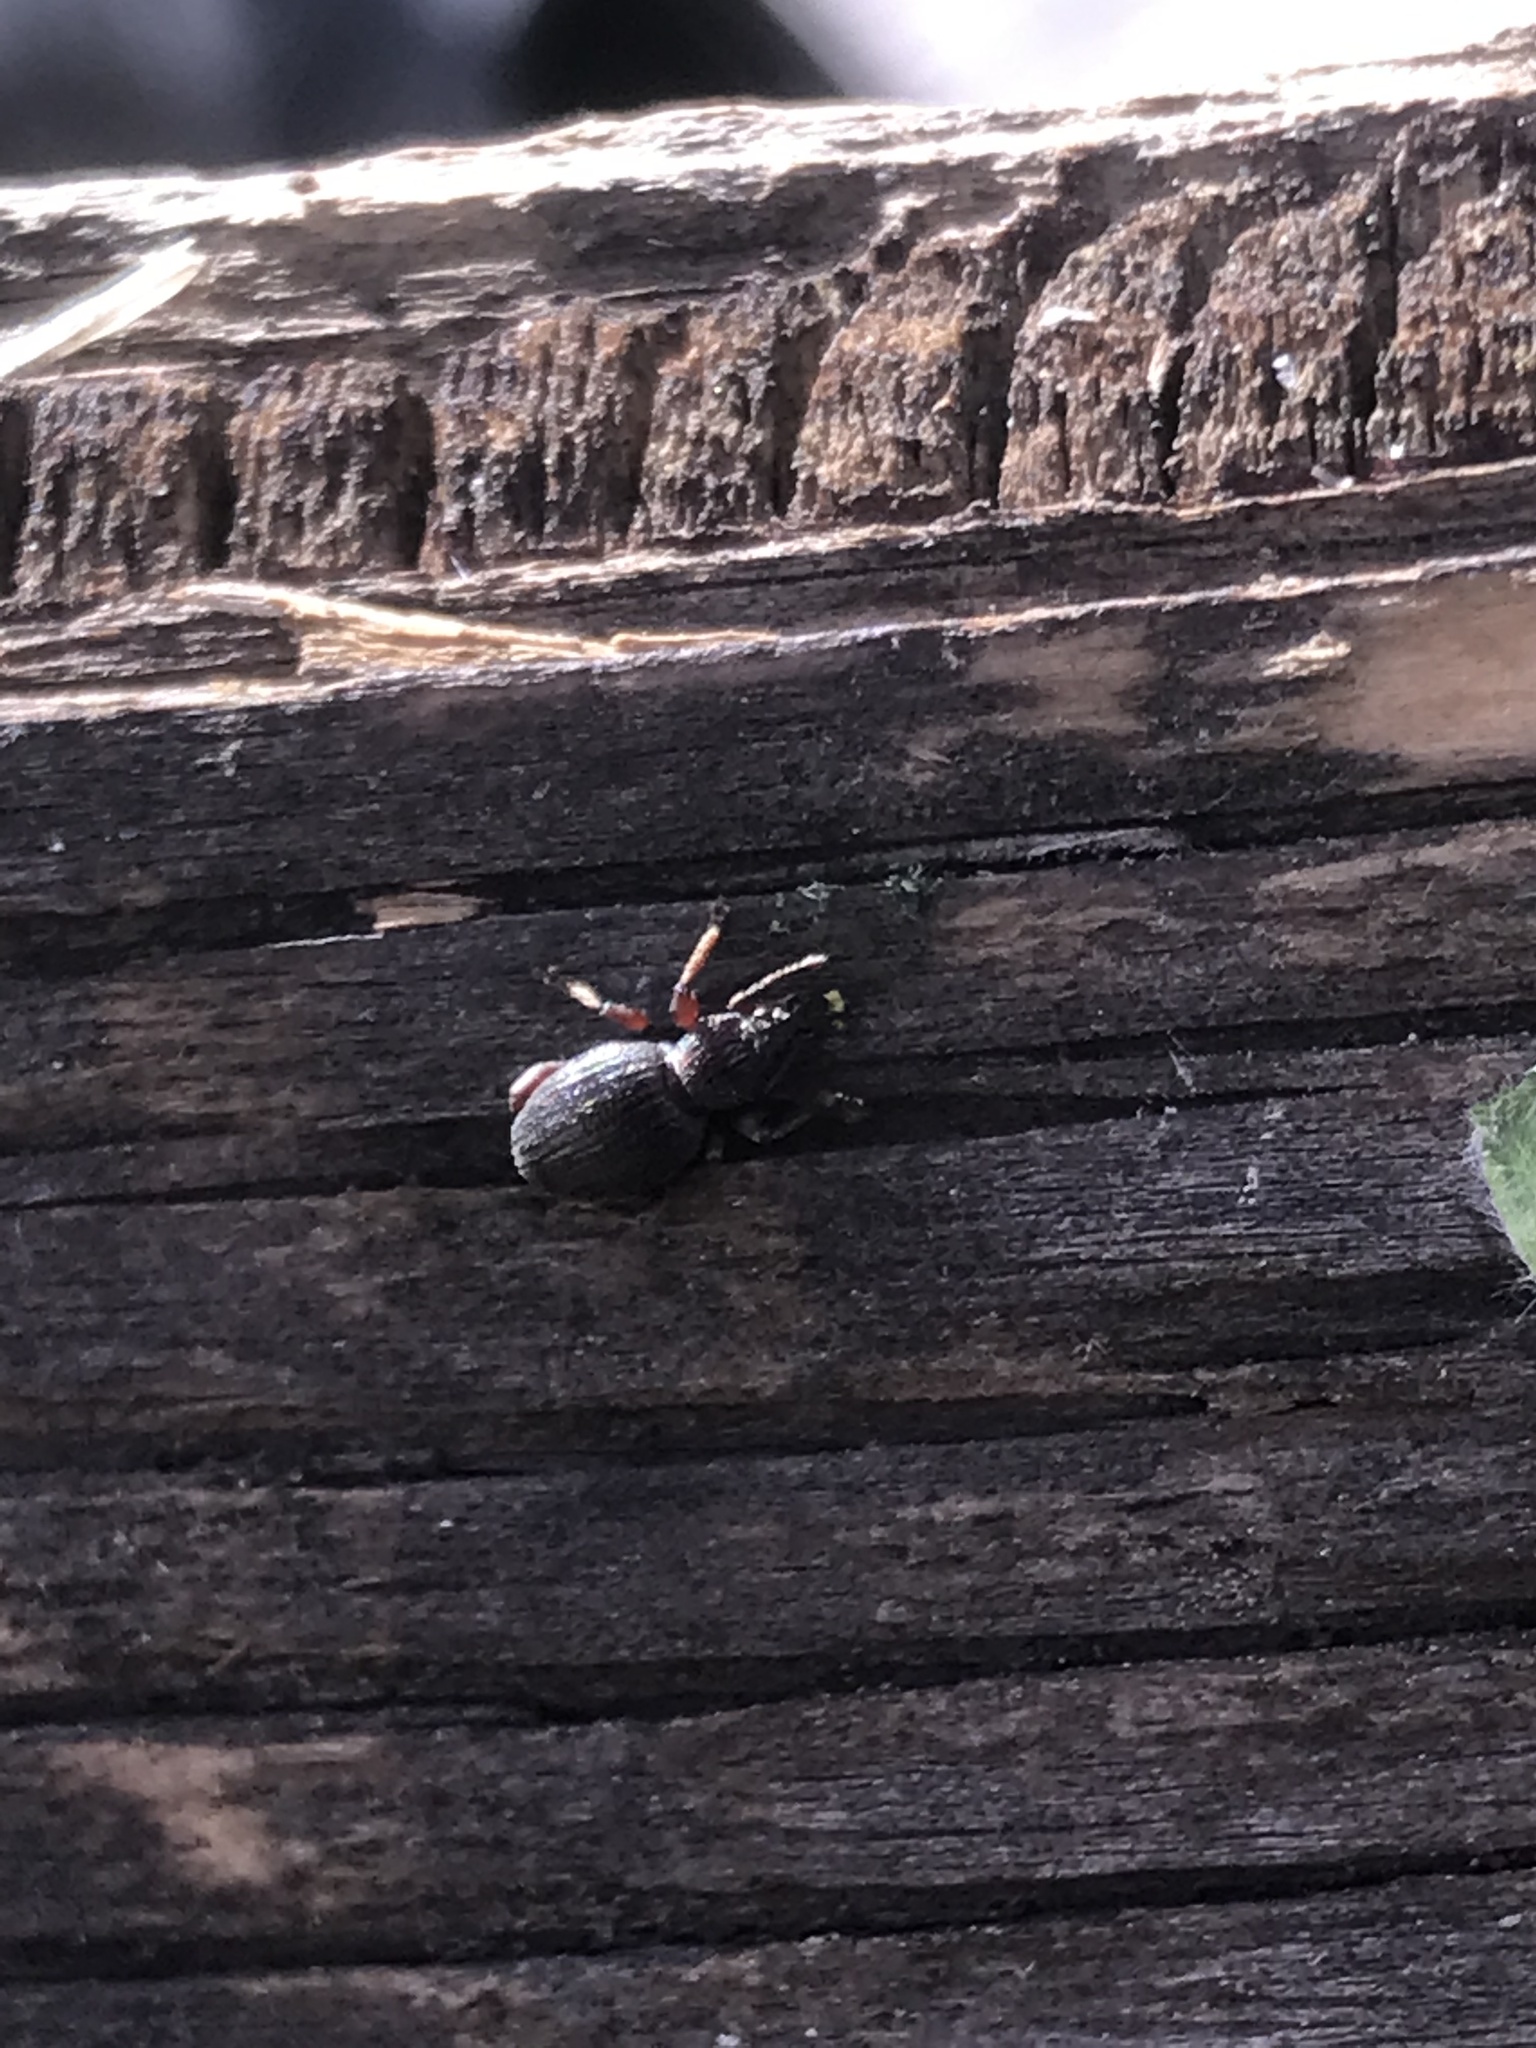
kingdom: Animalia
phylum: Arthropoda
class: Insecta
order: Coleoptera
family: Curculionidae
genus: Otiorhynchus
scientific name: Otiorhynchus ovatus
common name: Strawberry root weevil
